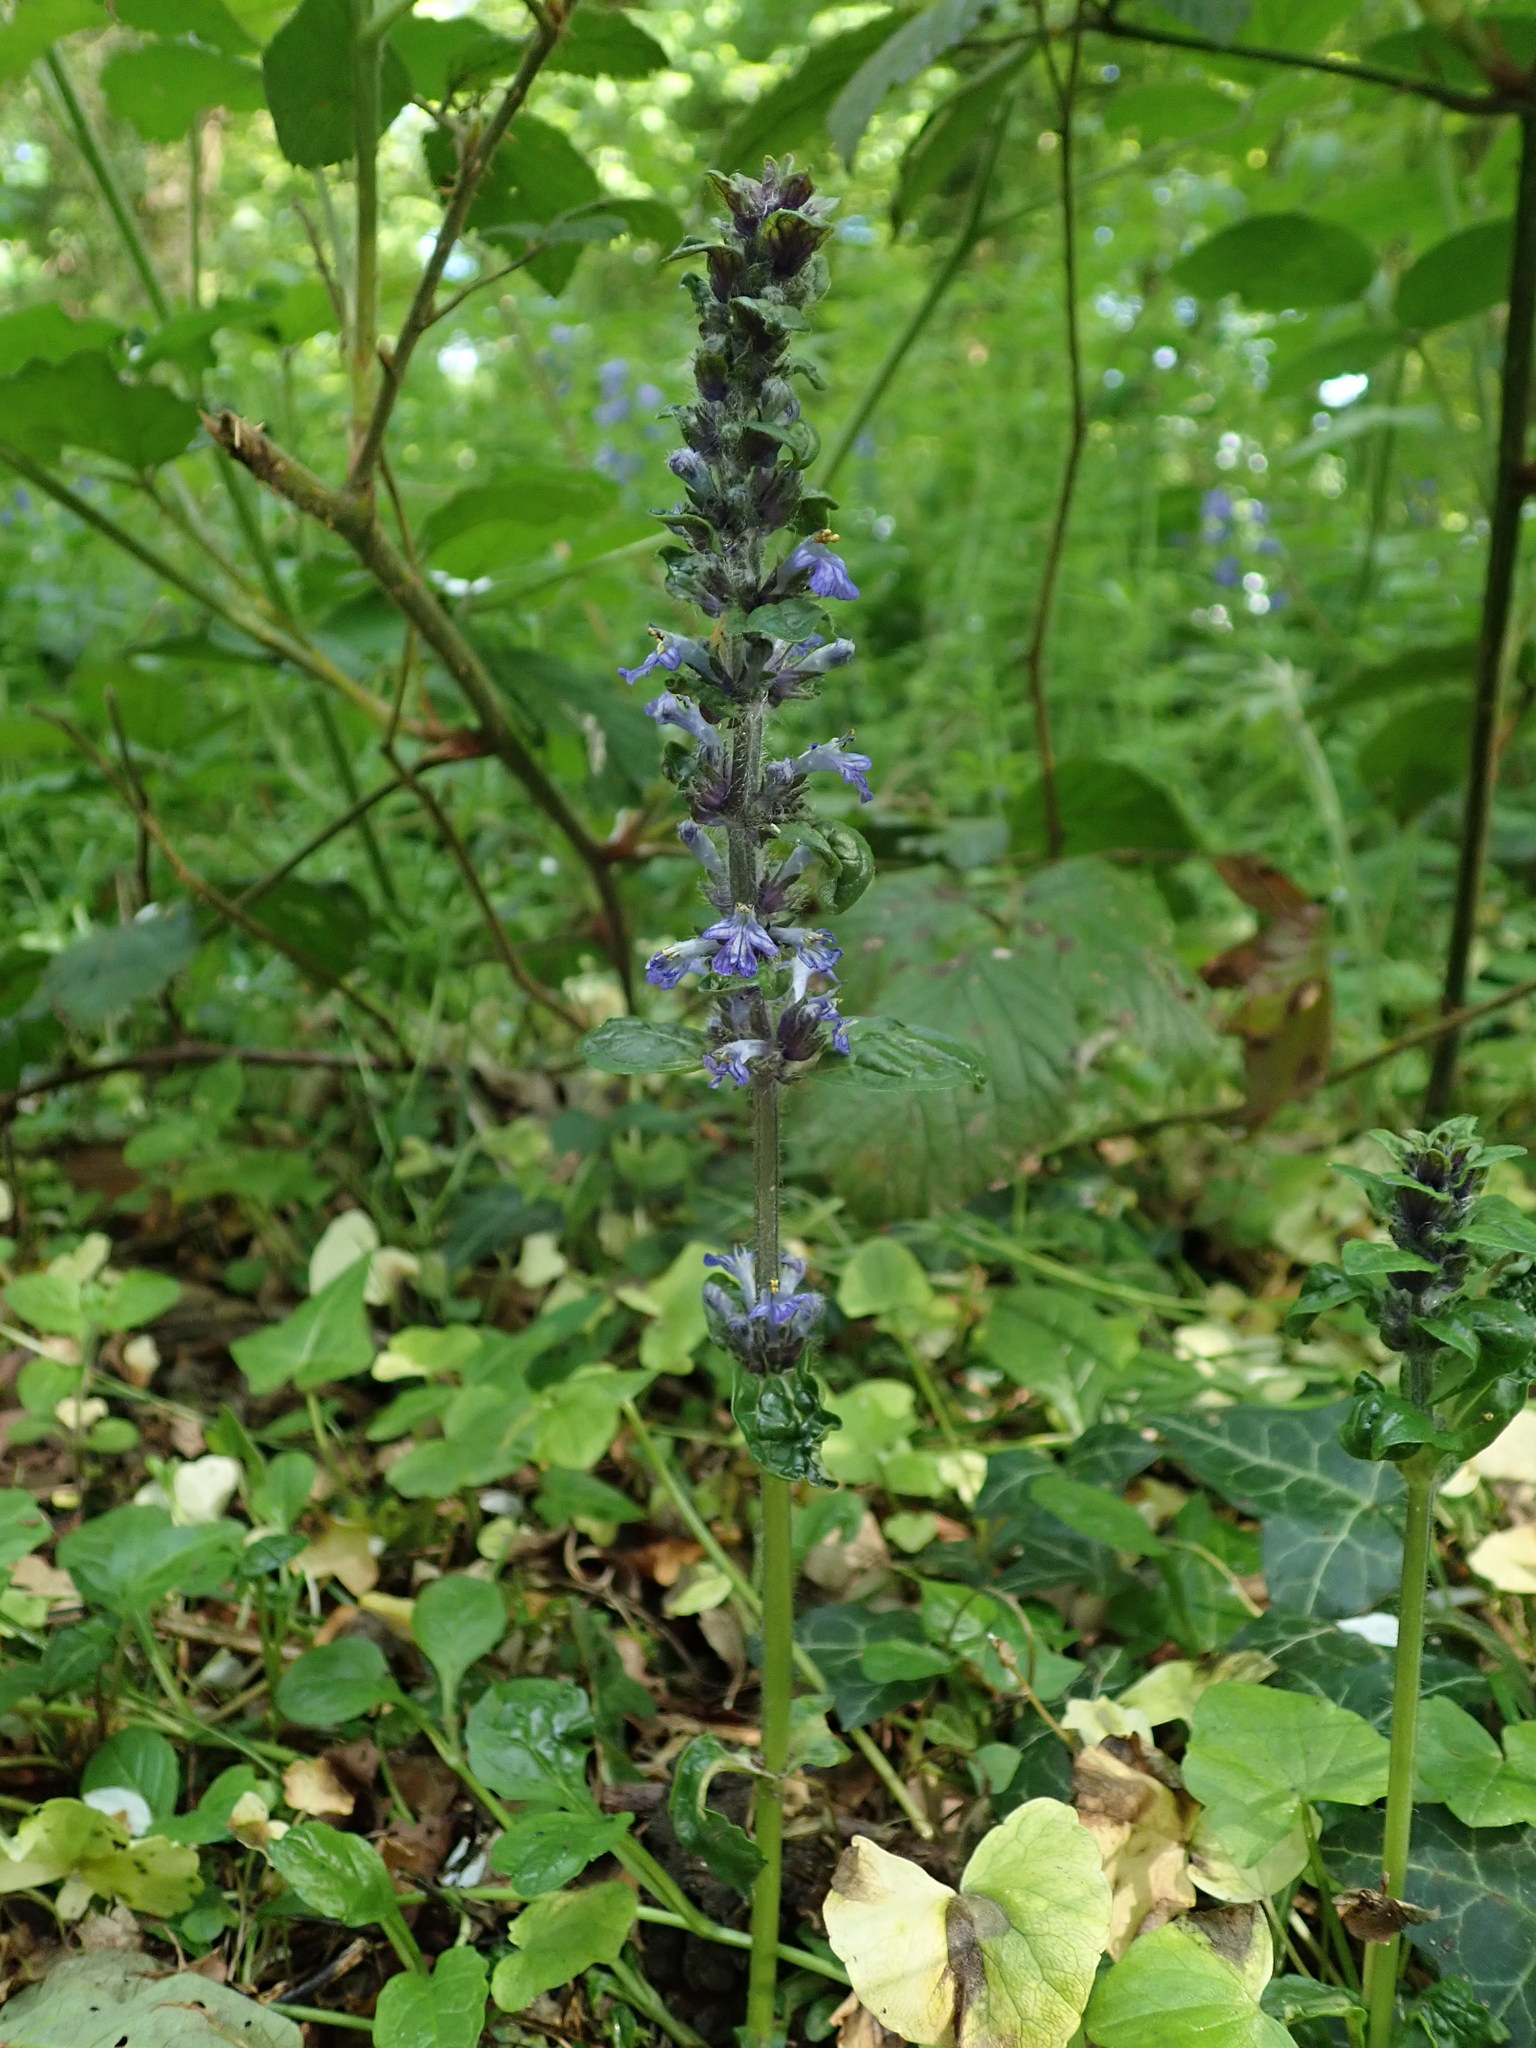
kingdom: Plantae
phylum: Tracheophyta
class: Magnoliopsida
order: Lamiales
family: Lamiaceae
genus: Ajuga
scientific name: Ajuga reptans
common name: Bugle
